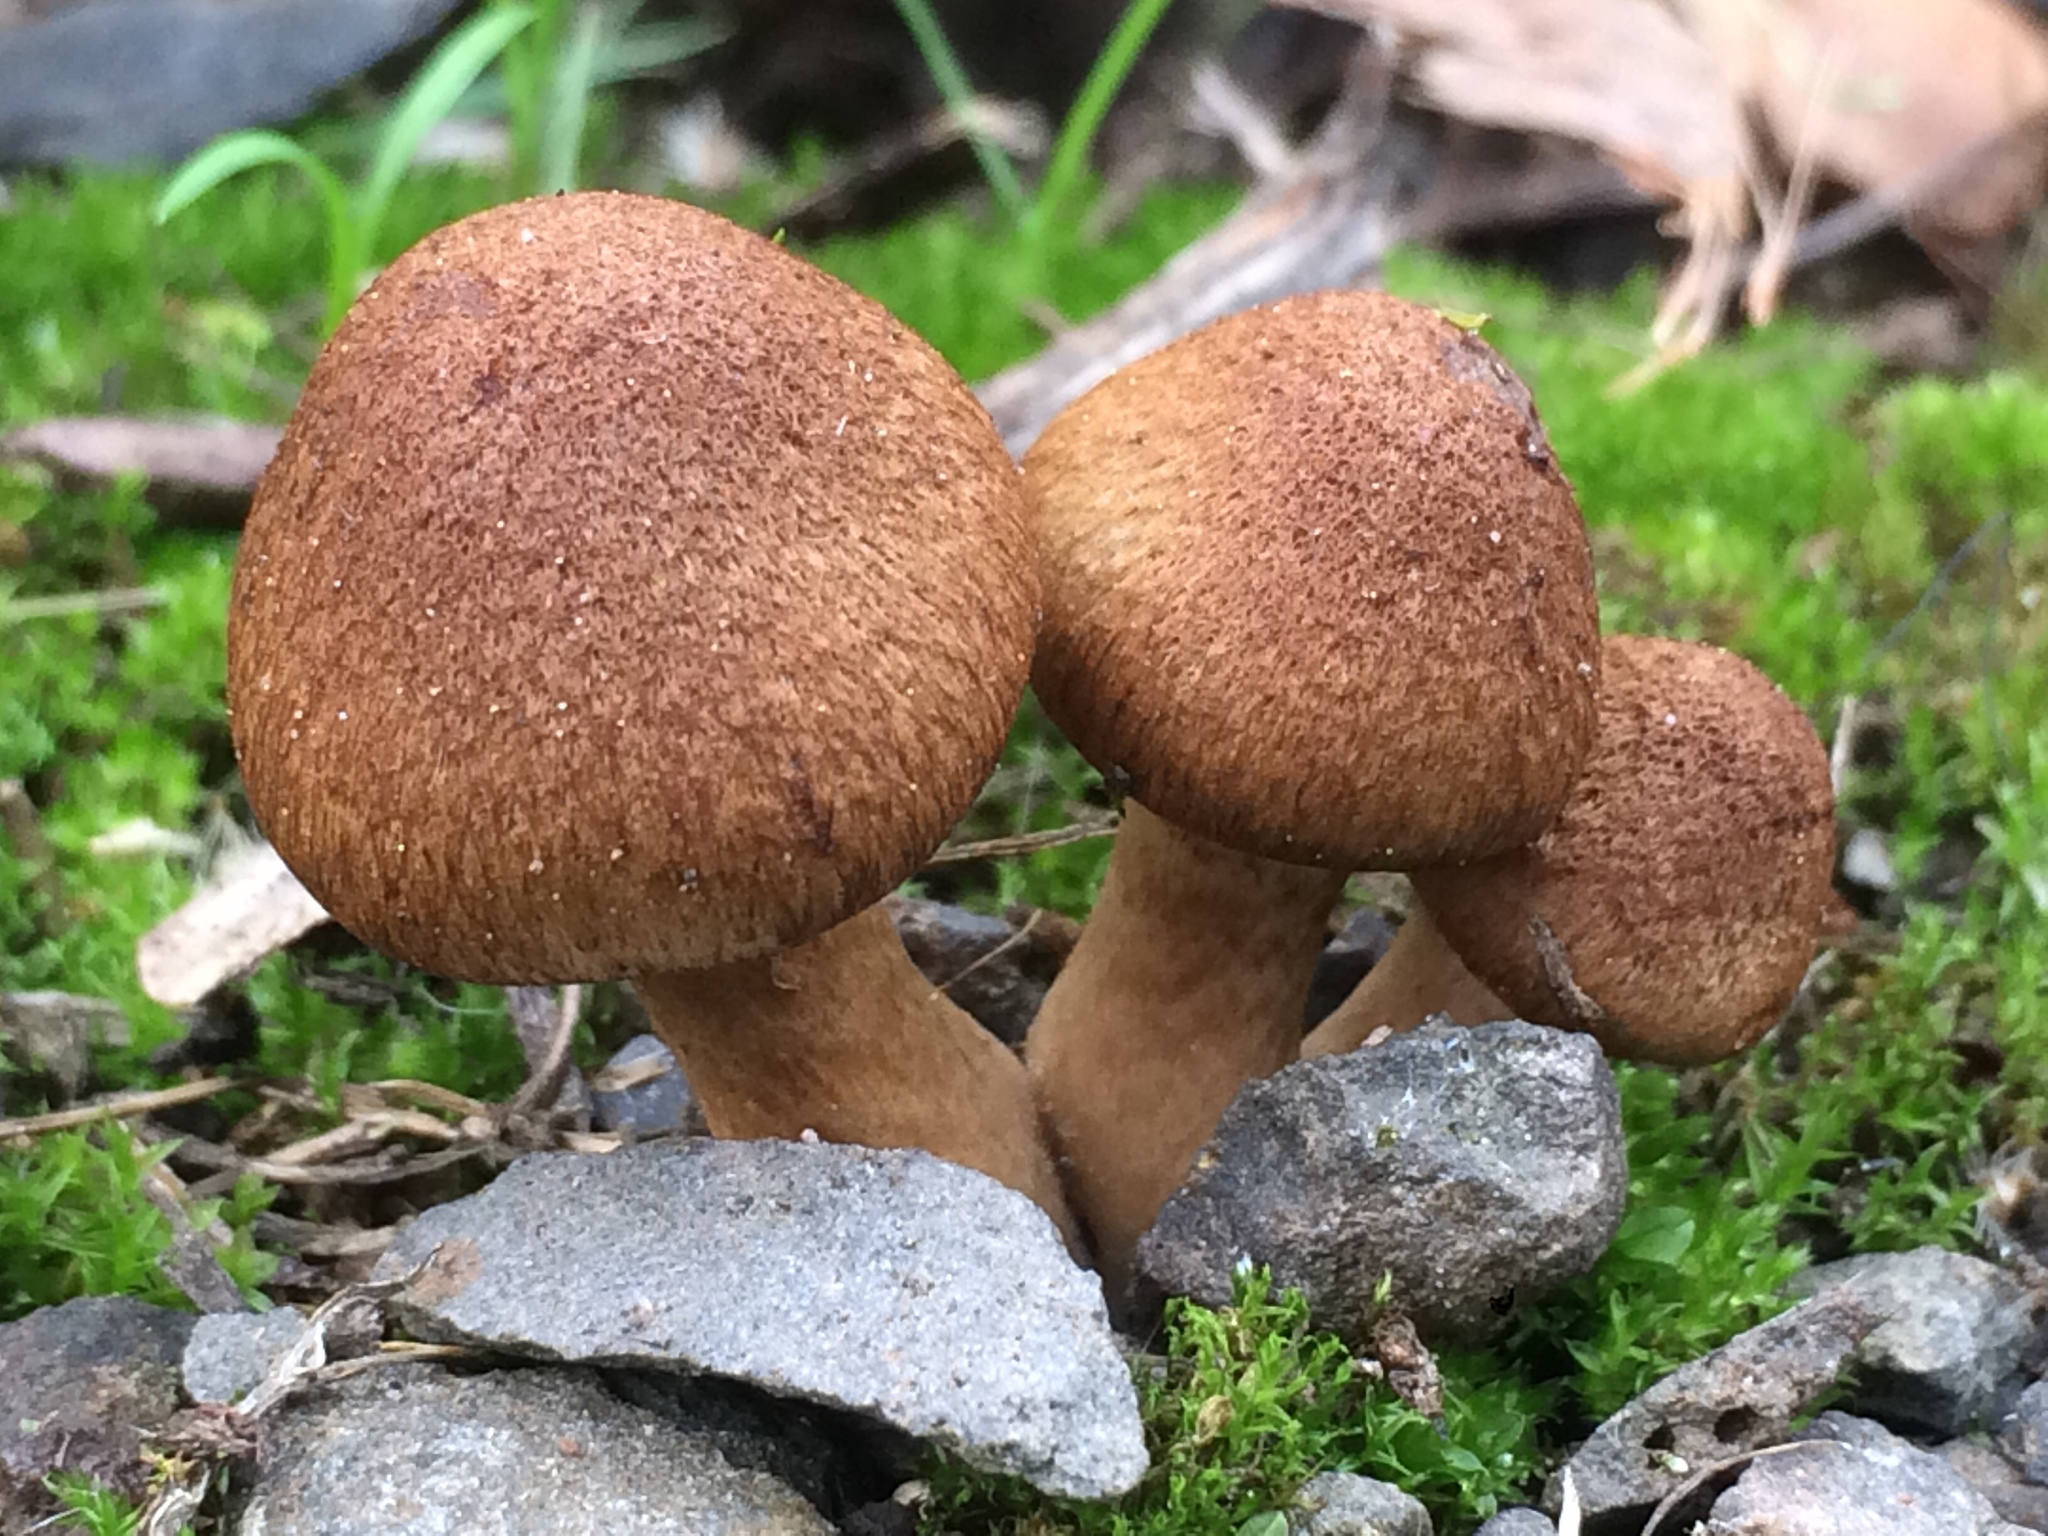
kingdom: Fungi
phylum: Basidiomycota
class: Agaricomycetes
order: Agaricales
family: Psathyrellaceae
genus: Lacrymaria
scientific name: Lacrymaria lacrymabunda
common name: Weeping widow
